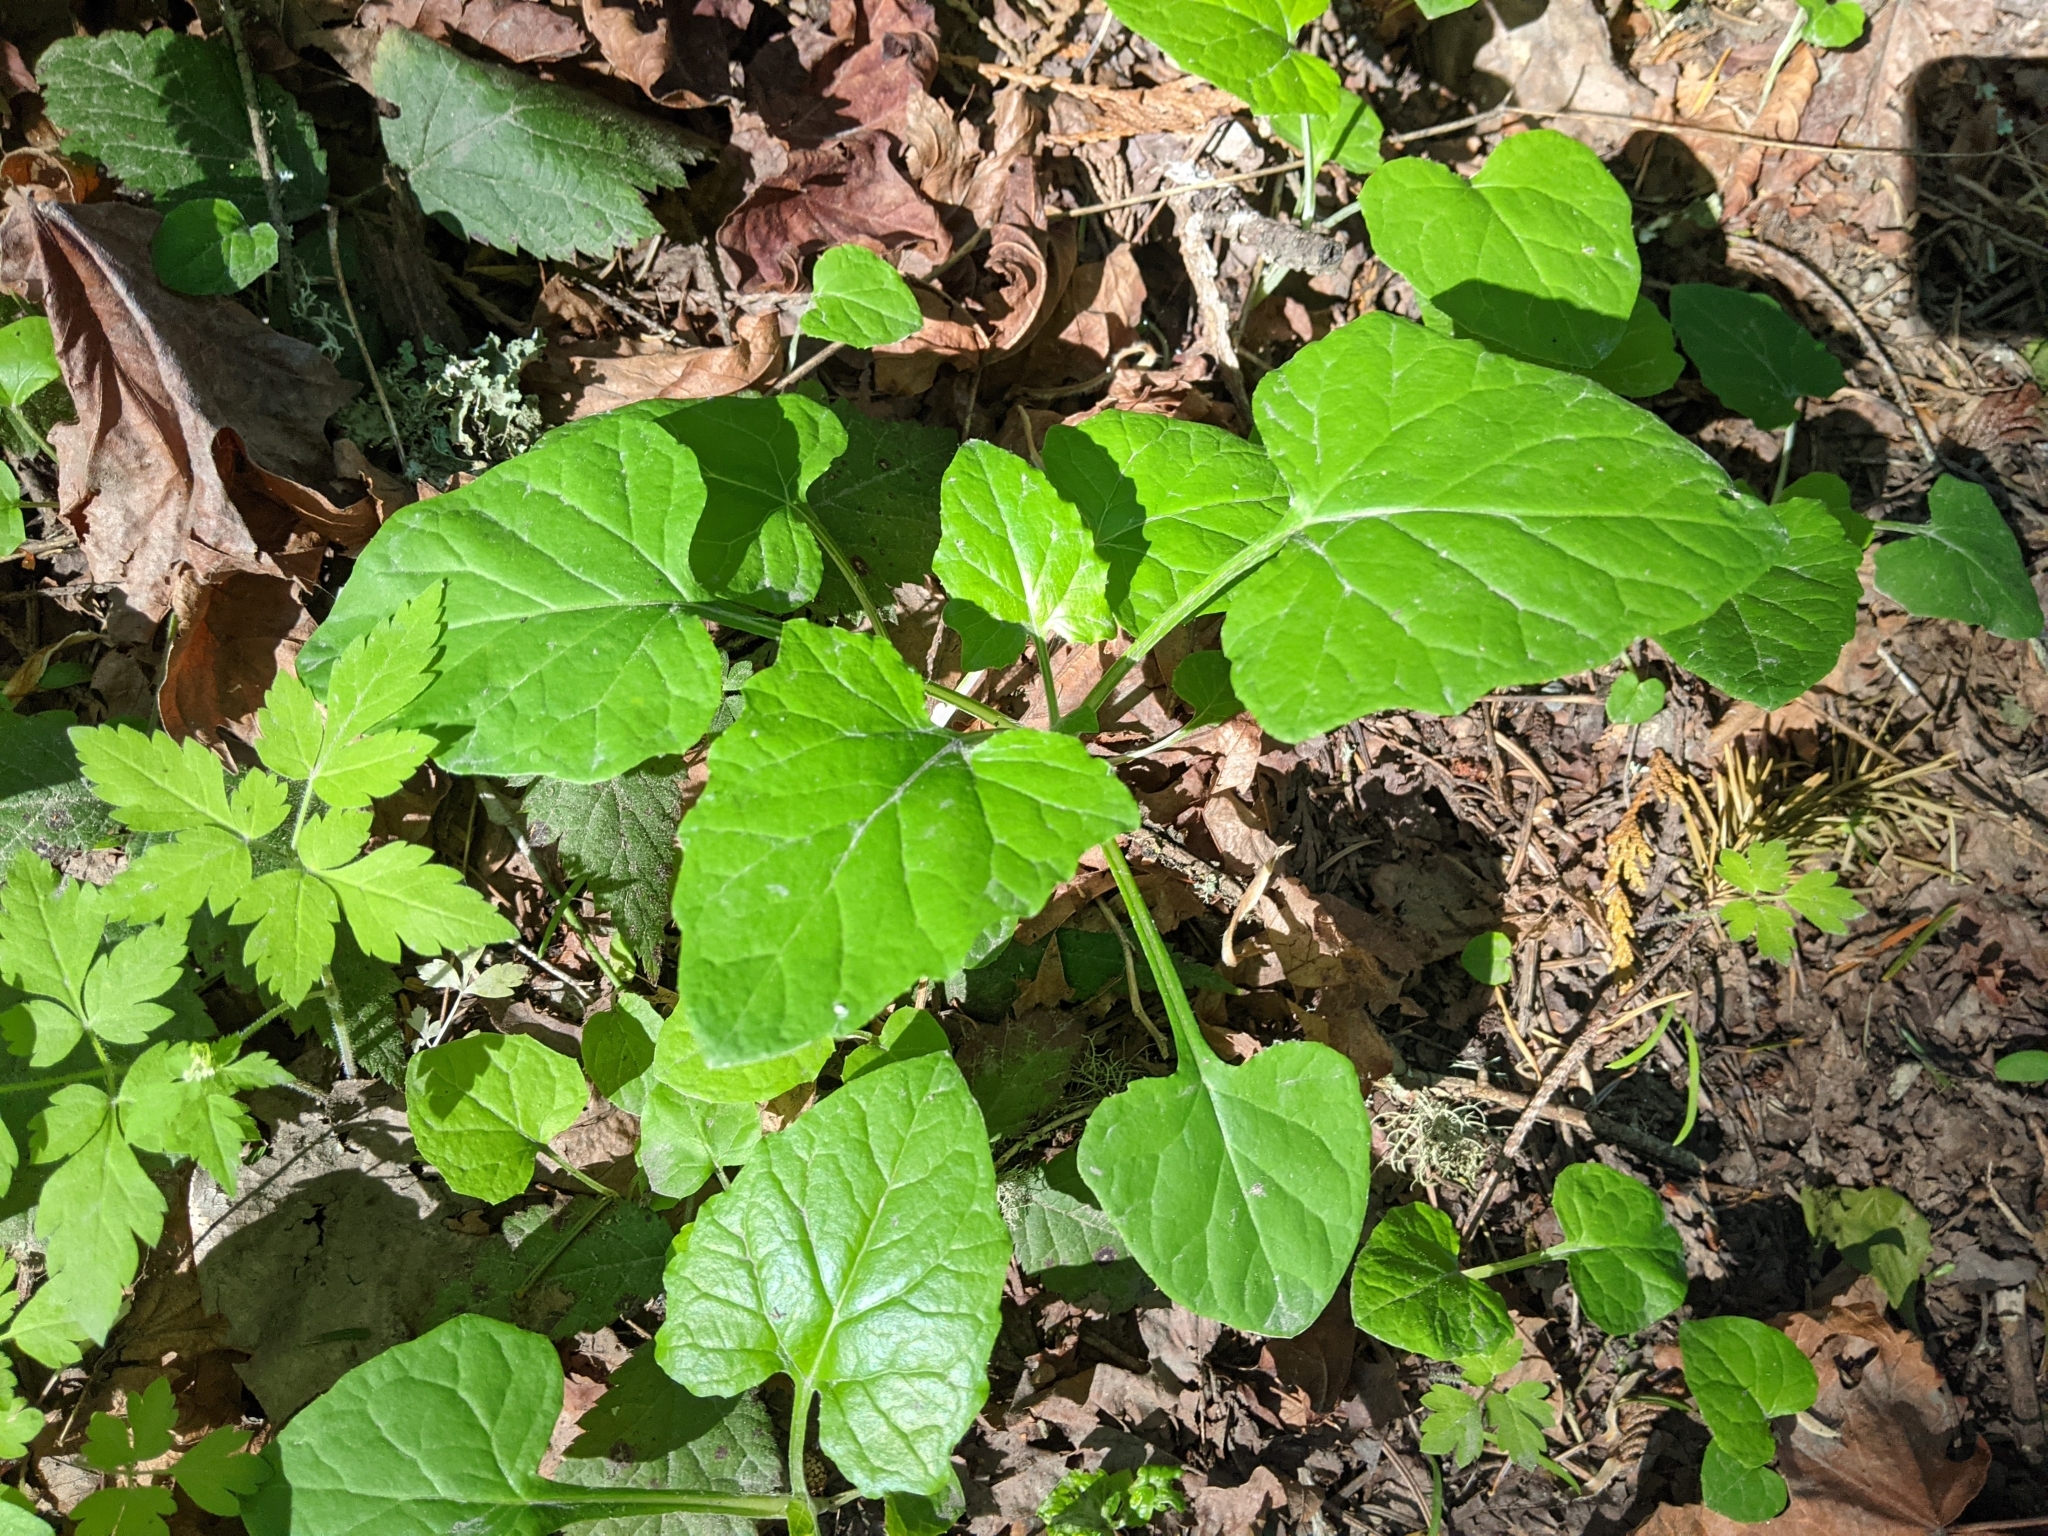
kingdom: Plantae
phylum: Tracheophyta
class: Magnoliopsida
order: Asterales
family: Asteraceae
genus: Adenocaulon
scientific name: Adenocaulon bicolor
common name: Trailplant
